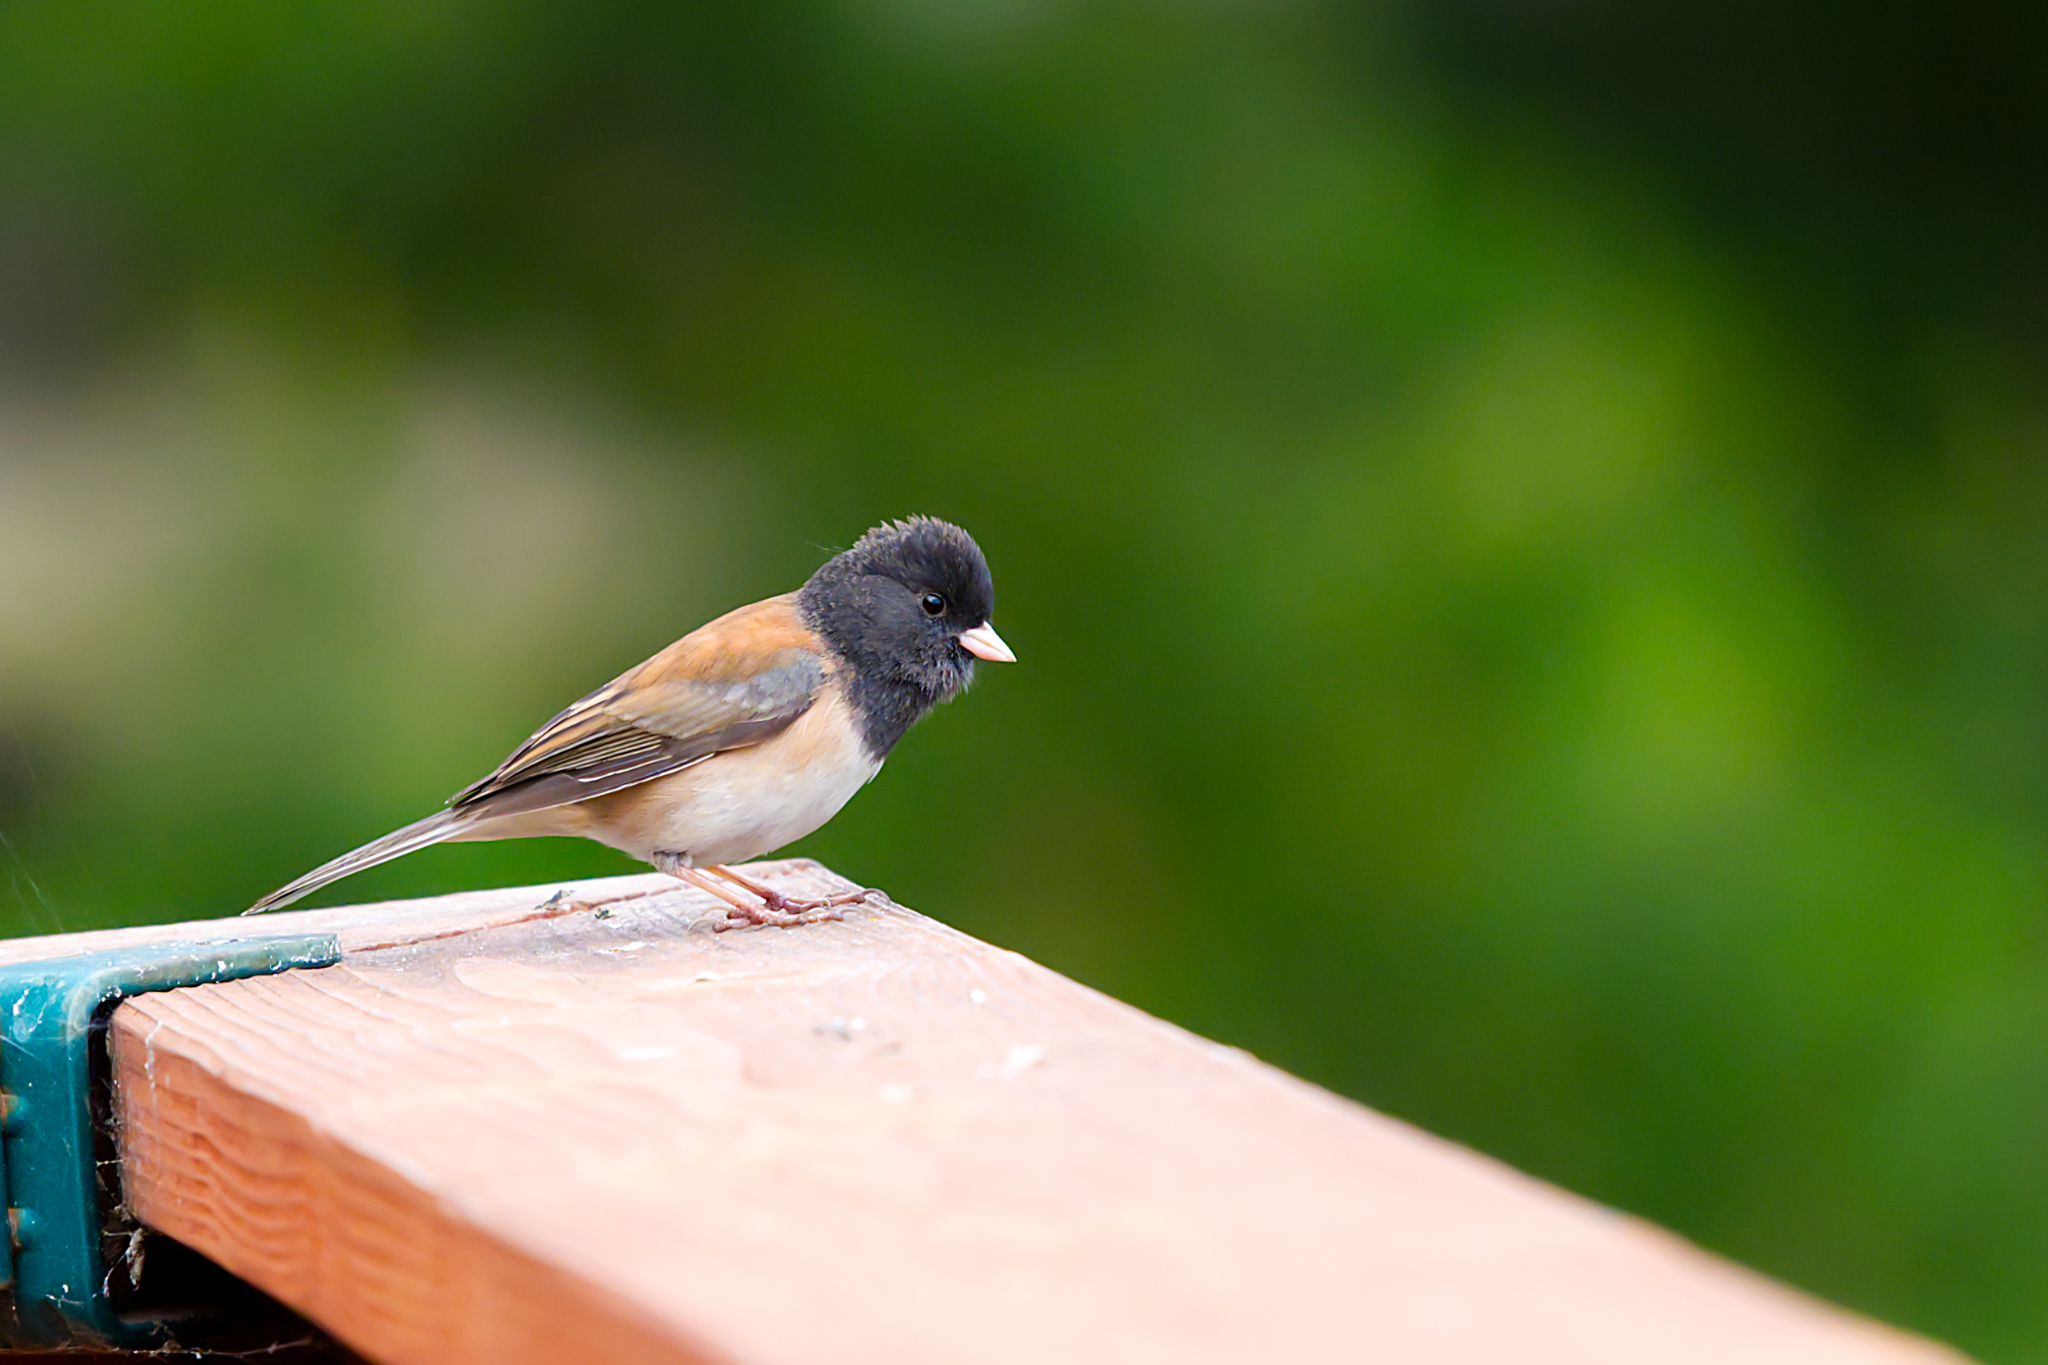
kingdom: Animalia
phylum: Chordata
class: Aves
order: Passeriformes
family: Passerellidae
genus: Junco
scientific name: Junco hyemalis
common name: Dark-eyed junco
